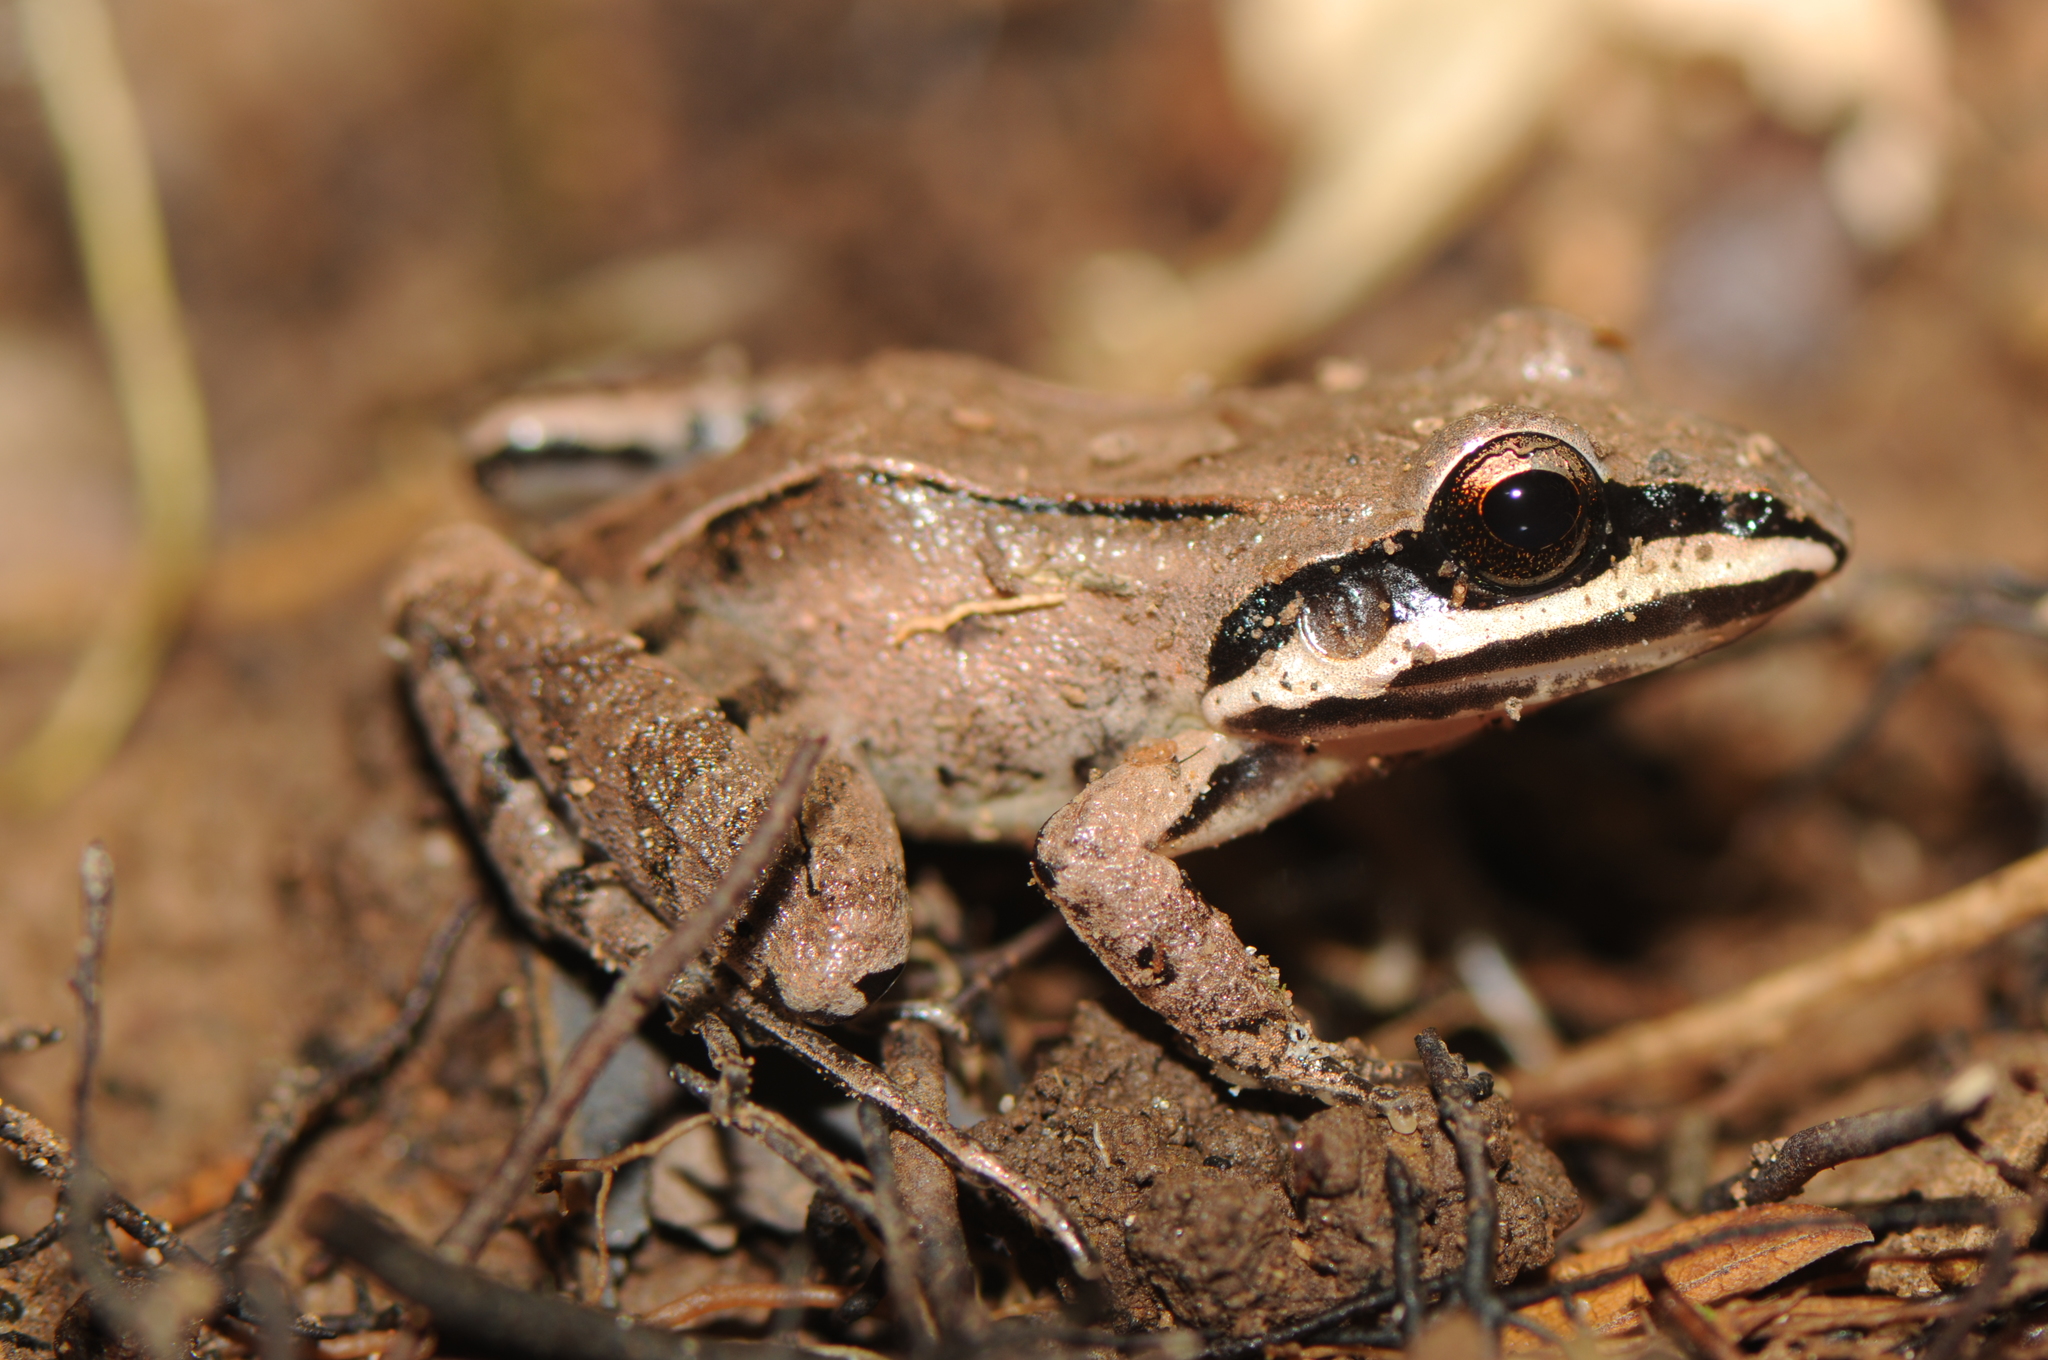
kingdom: Animalia
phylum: Chordata
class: Amphibia
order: Anura
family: Leptodactylidae
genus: Leptodactylus
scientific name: Leptodactylus didymus
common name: Madre de dios thin-toed frog
